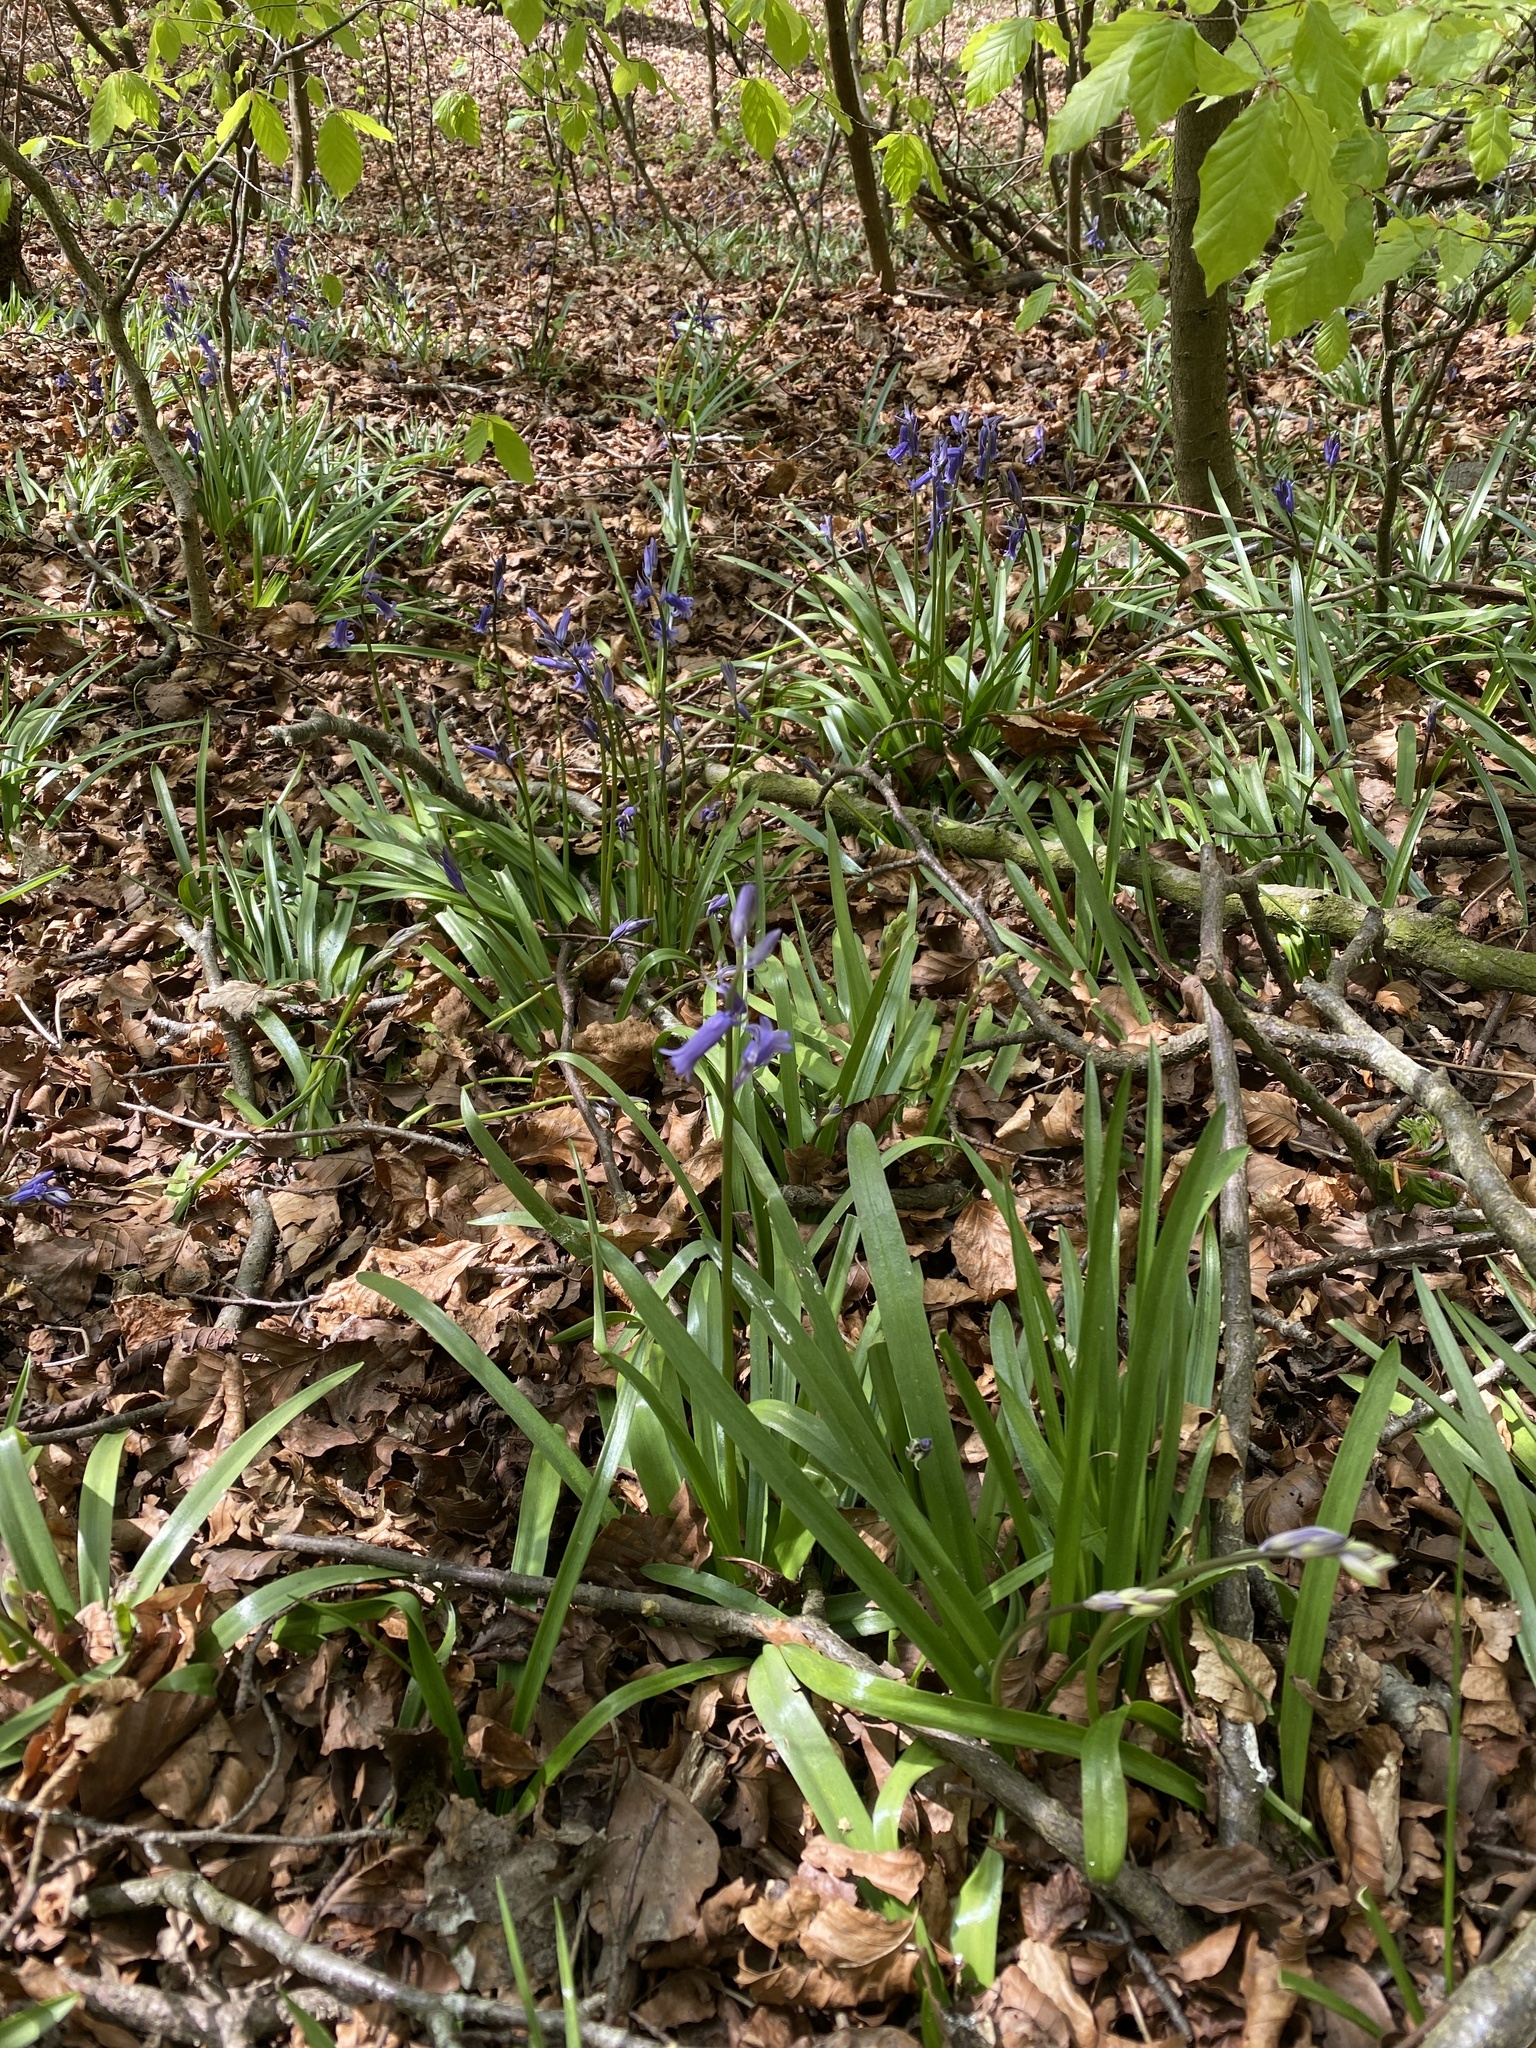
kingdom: Plantae
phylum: Tracheophyta
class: Liliopsida
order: Asparagales
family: Asparagaceae
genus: Hyacinthoides
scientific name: Hyacinthoides non-scripta
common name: Bluebell
